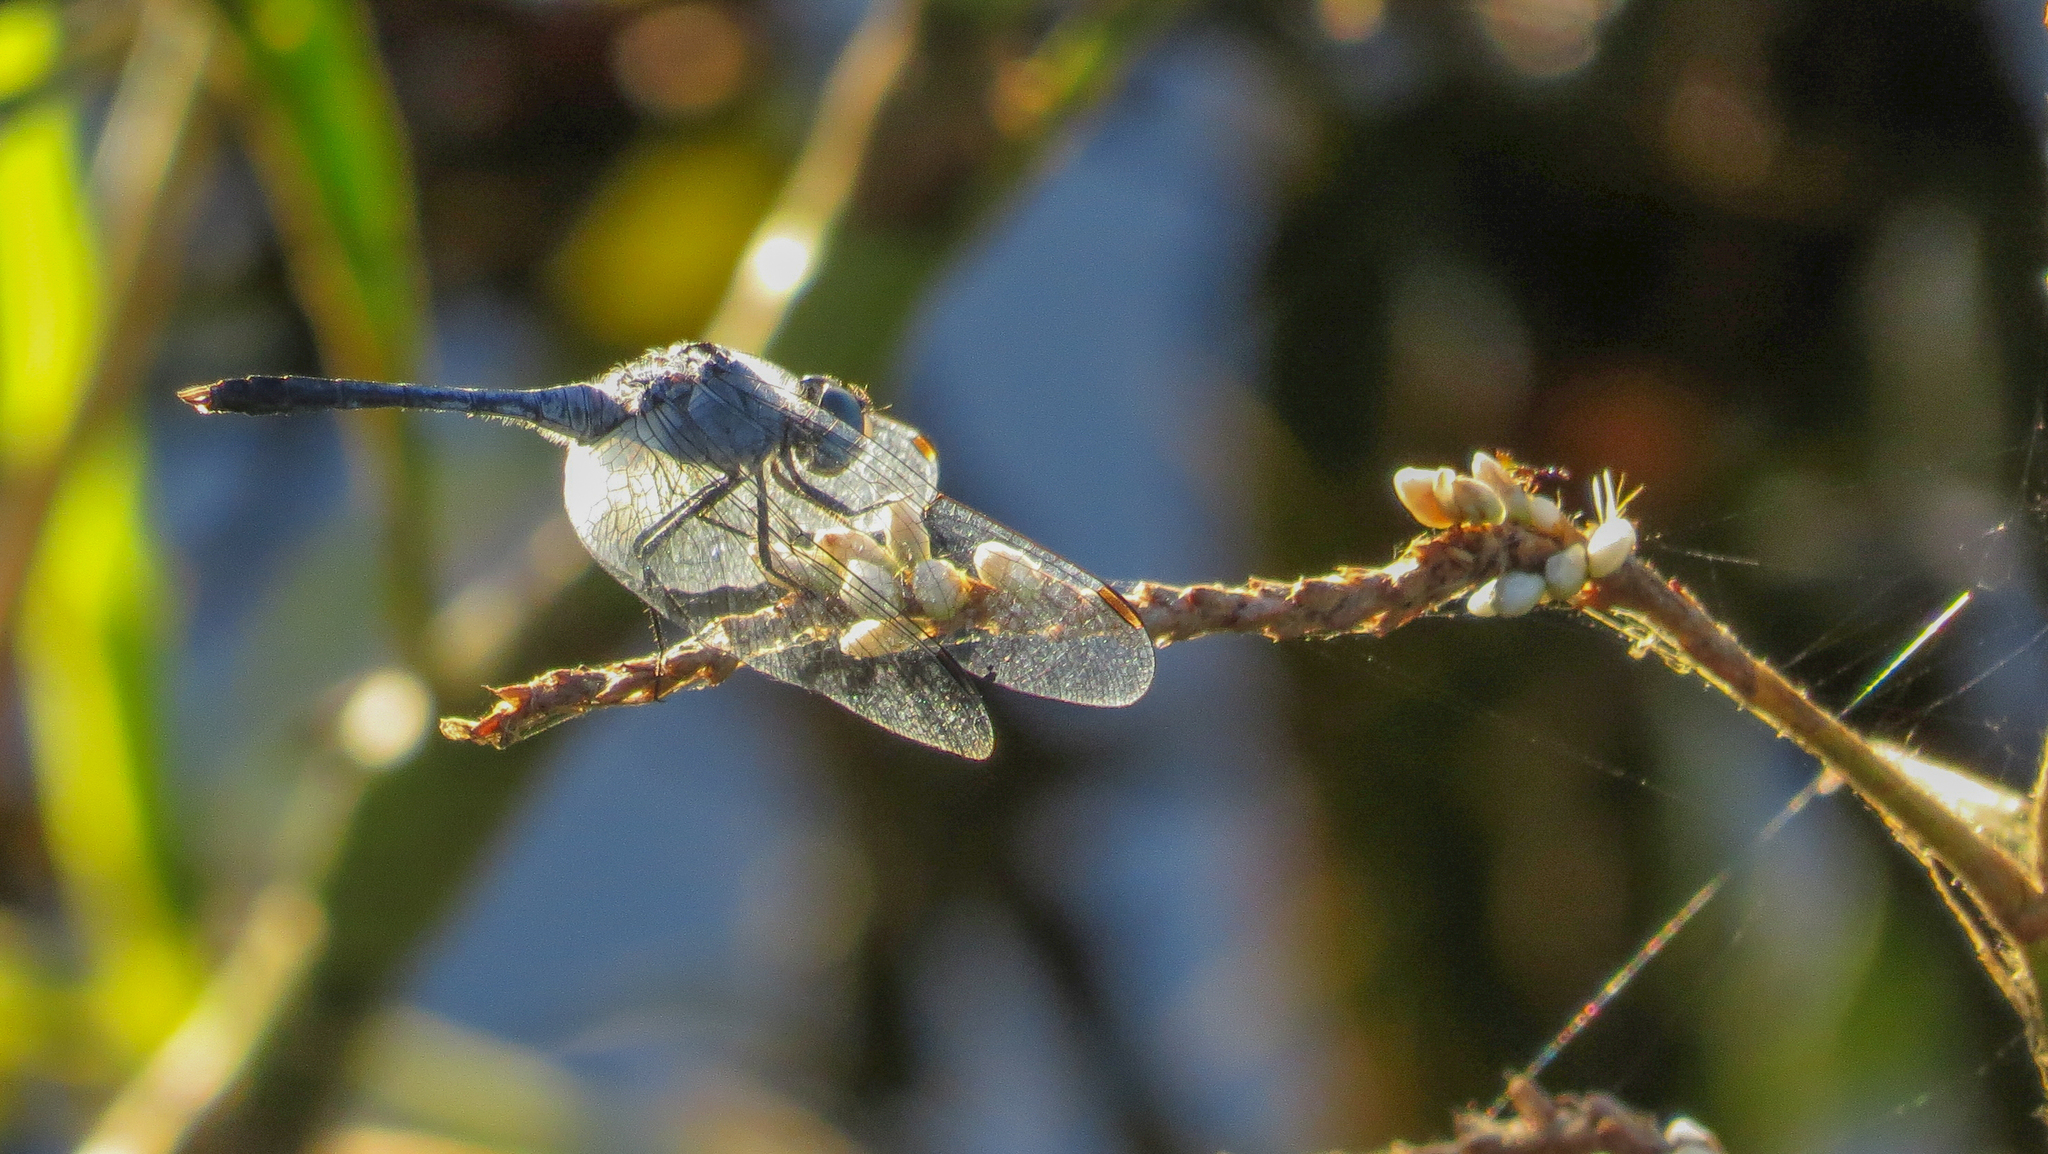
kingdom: Animalia
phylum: Arthropoda
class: Insecta
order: Odonata
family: Libellulidae
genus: Diplacodes
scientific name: Diplacodes trivialis
